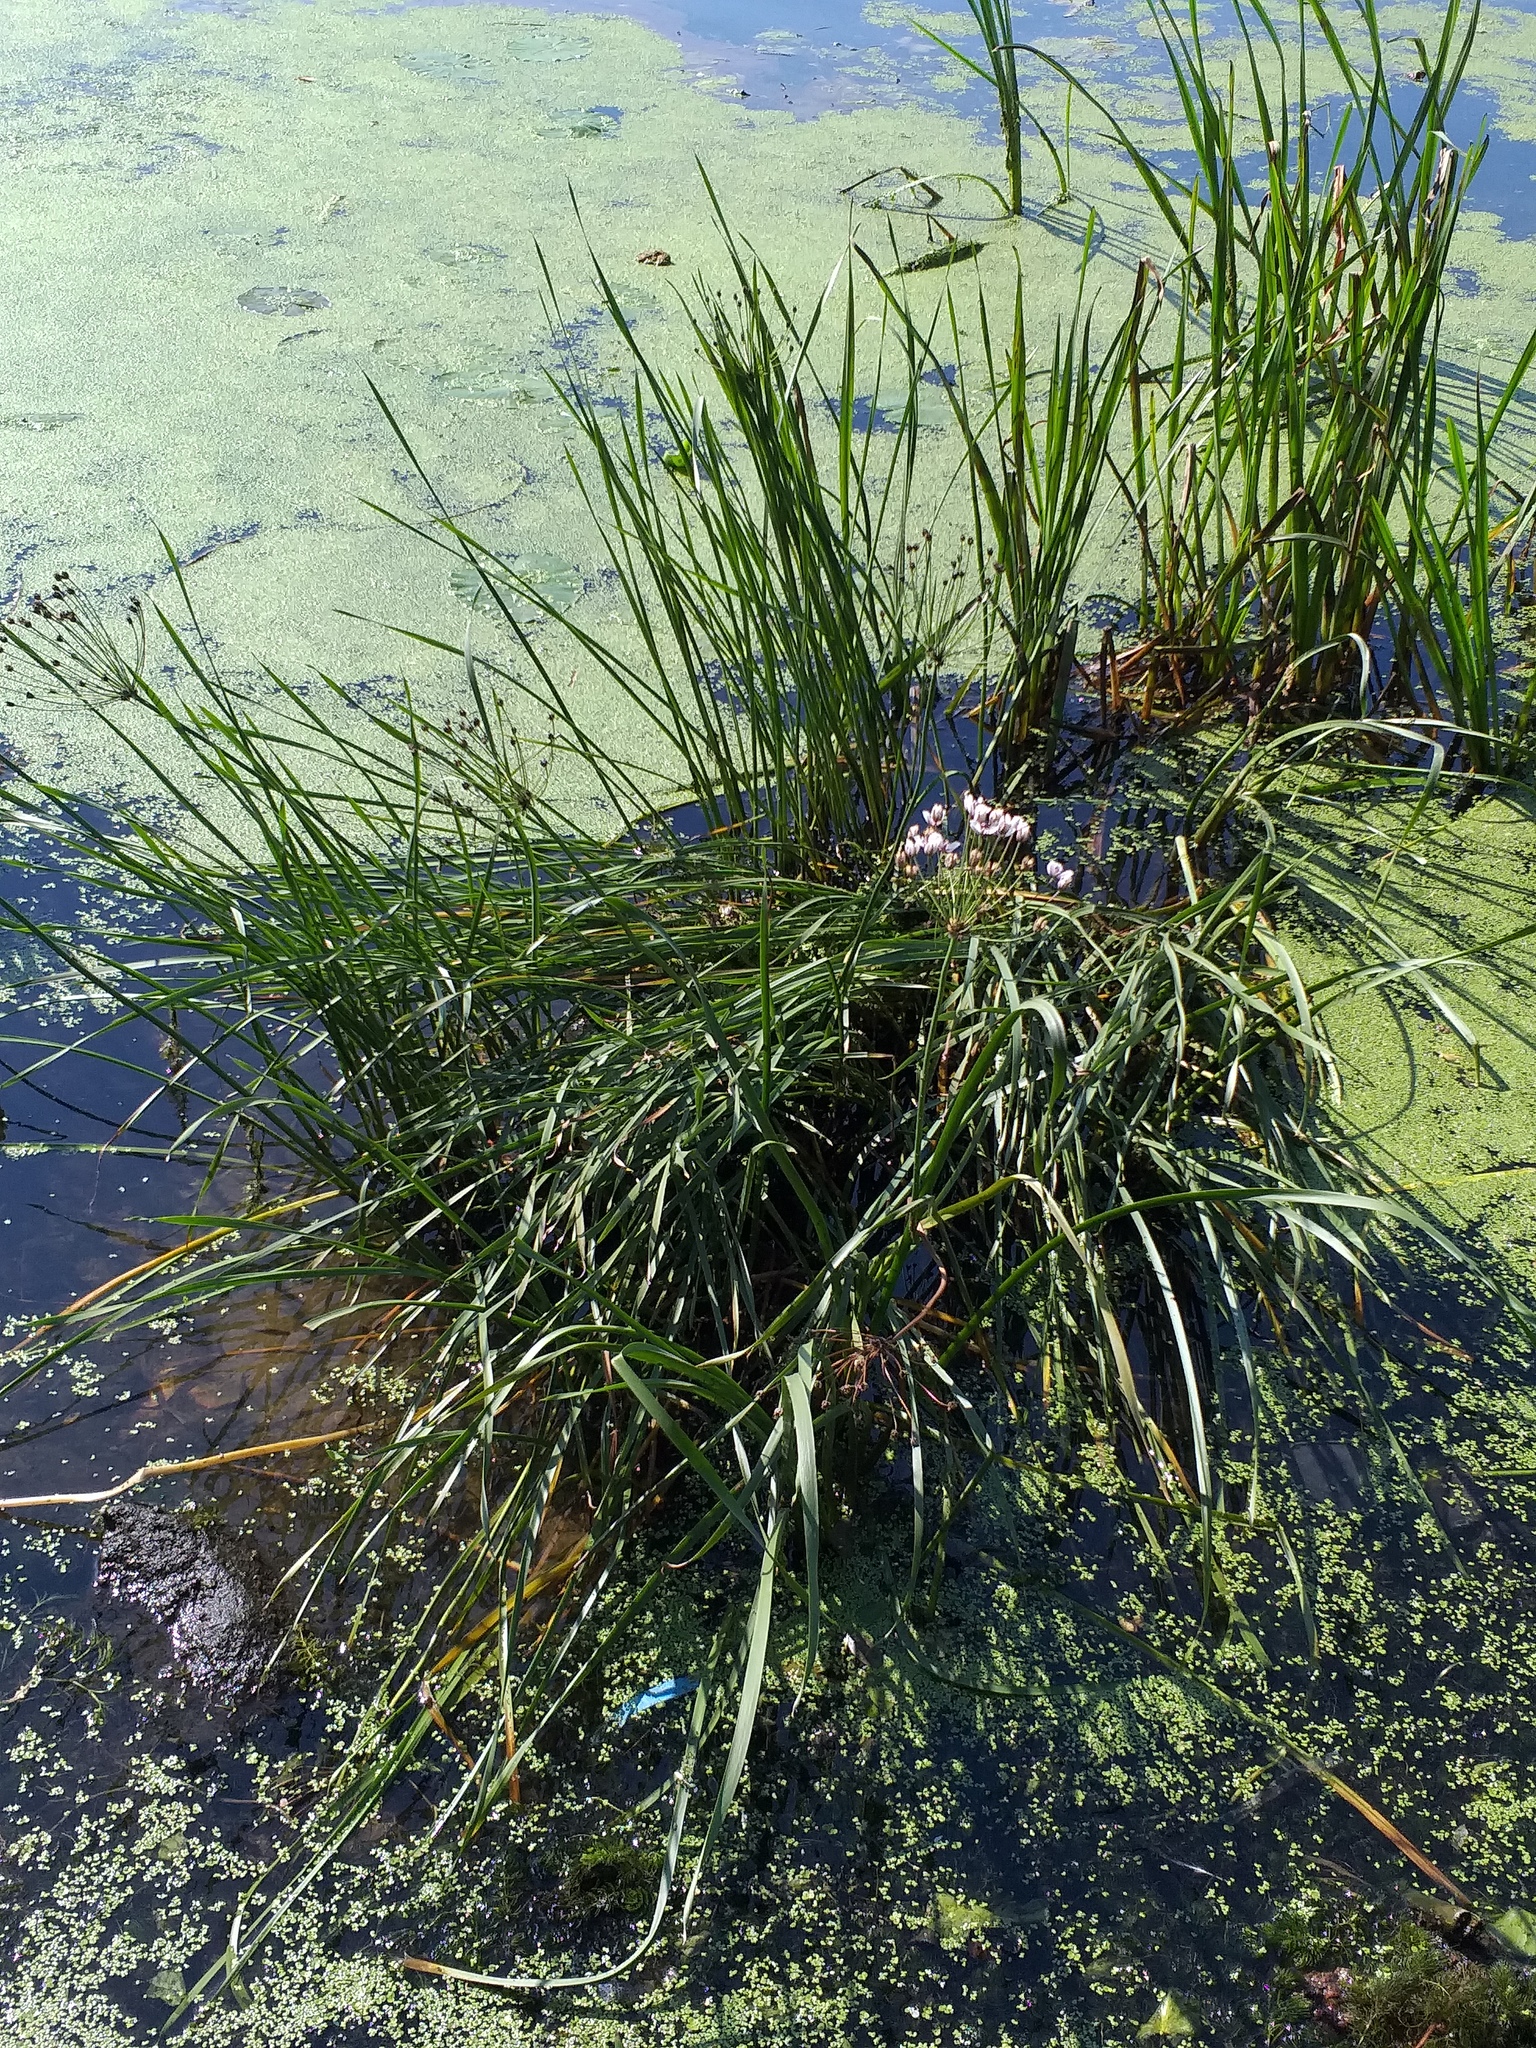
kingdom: Plantae
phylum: Tracheophyta
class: Liliopsida
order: Alismatales
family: Butomaceae
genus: Butomus
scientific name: Butomus umbellatus
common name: Flowering-rush
